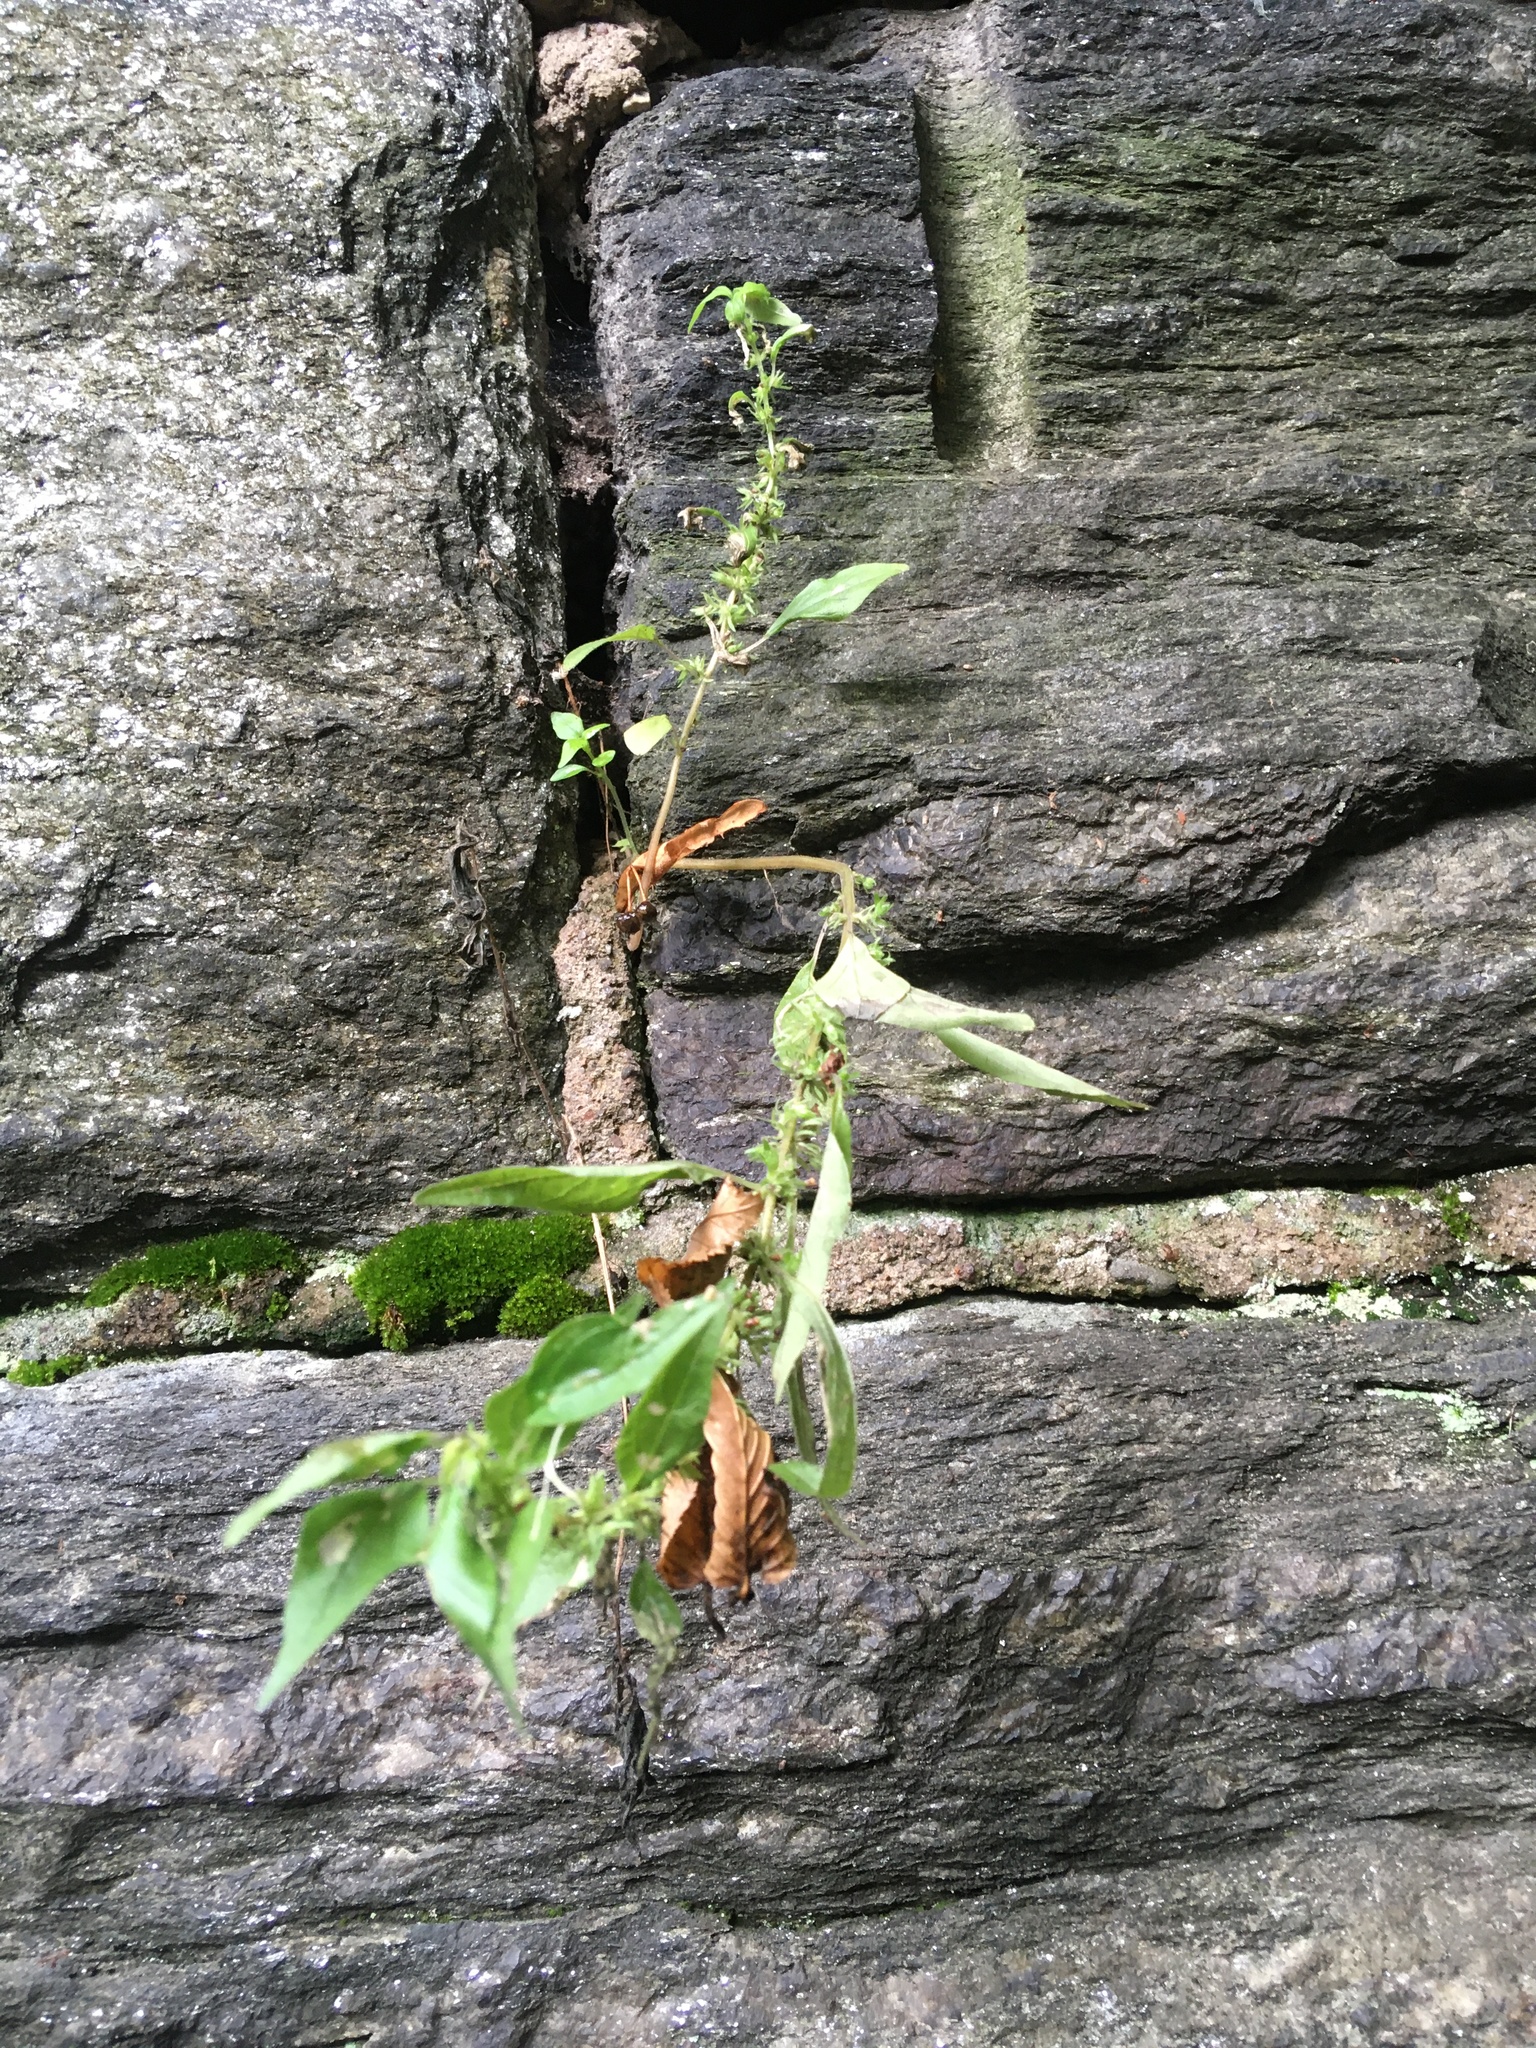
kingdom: Plantae
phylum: Tracheophyta
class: Magnoliopsida
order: Rosales
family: Urticaceae
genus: Parietaria
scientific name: Parietaria pensylvanica
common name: Pennsylvania pellitory
